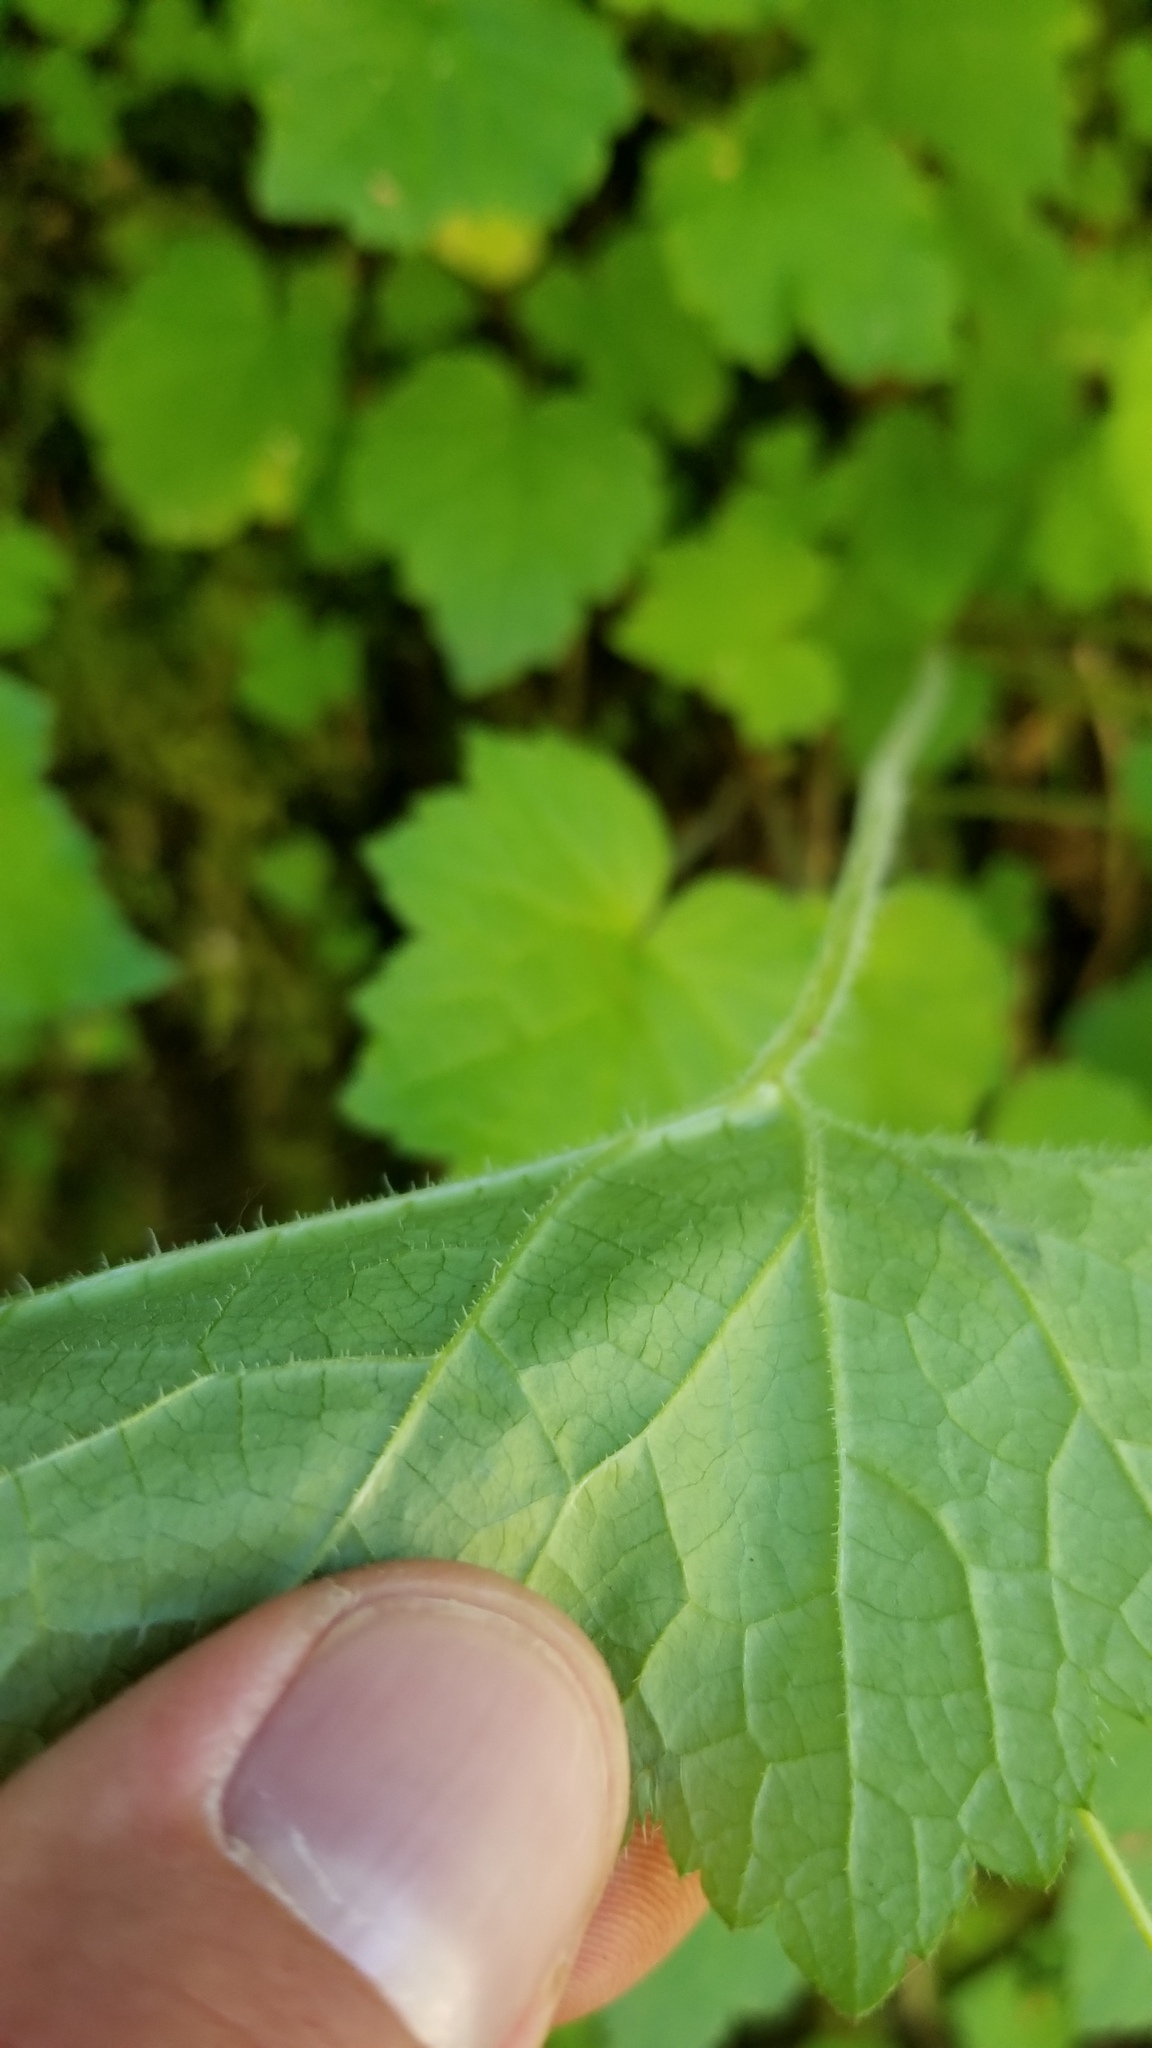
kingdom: Plantae
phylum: Tracheophyta
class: Magnoliopsida
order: Saxifragales
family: Saxifragaceae
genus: Tolmiea
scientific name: Tolmiea menziesii
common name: Pick-a-back-plant
